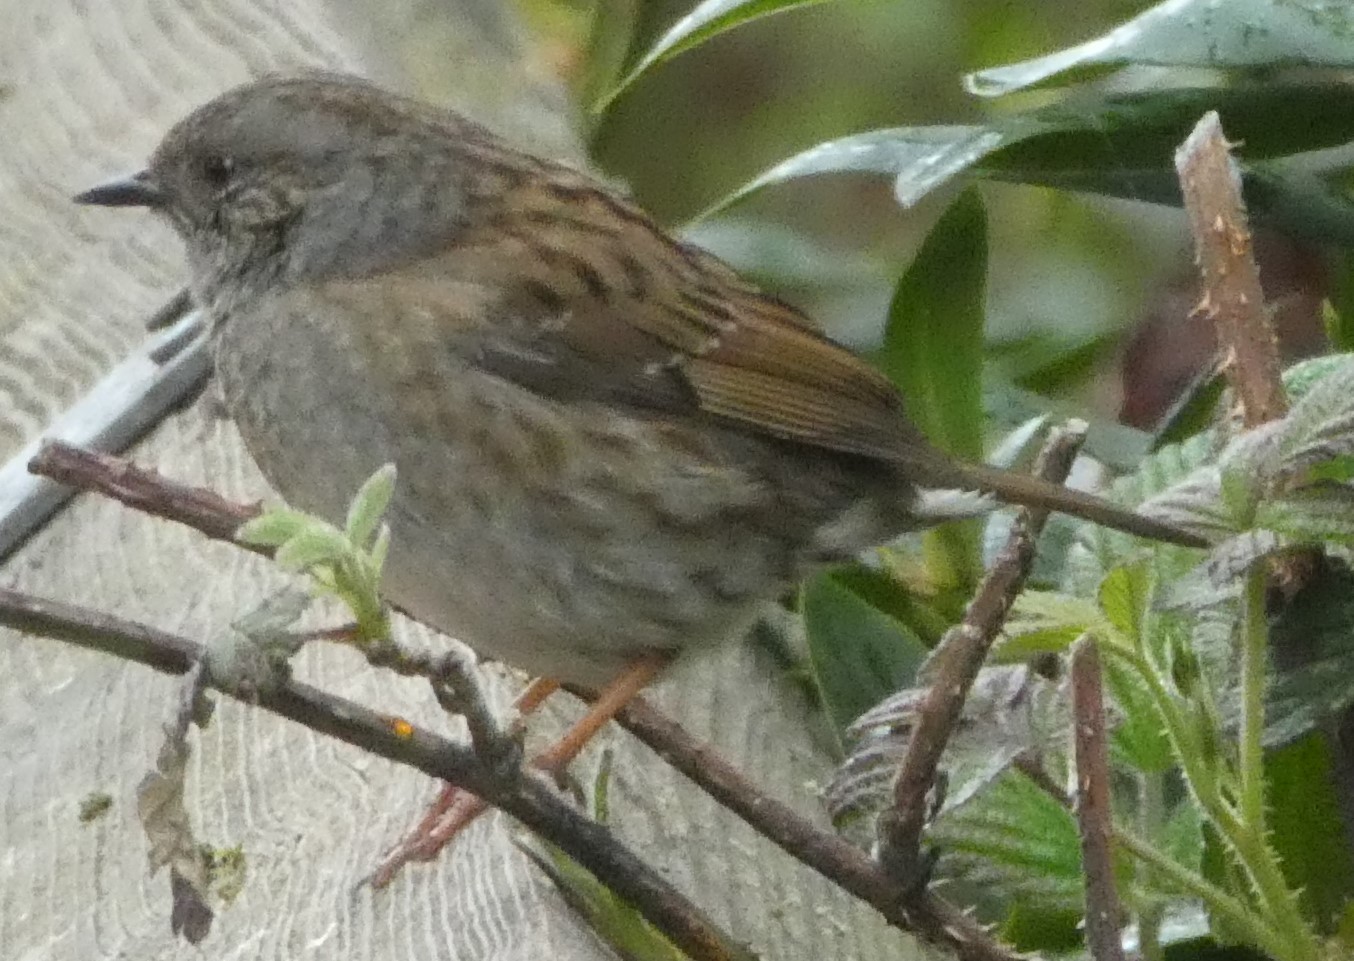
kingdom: Animalia
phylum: Chordata
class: Aves
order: Passeriformes
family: Prunellidae
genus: Prunella
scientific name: Prunella modularis
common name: Dunnock
